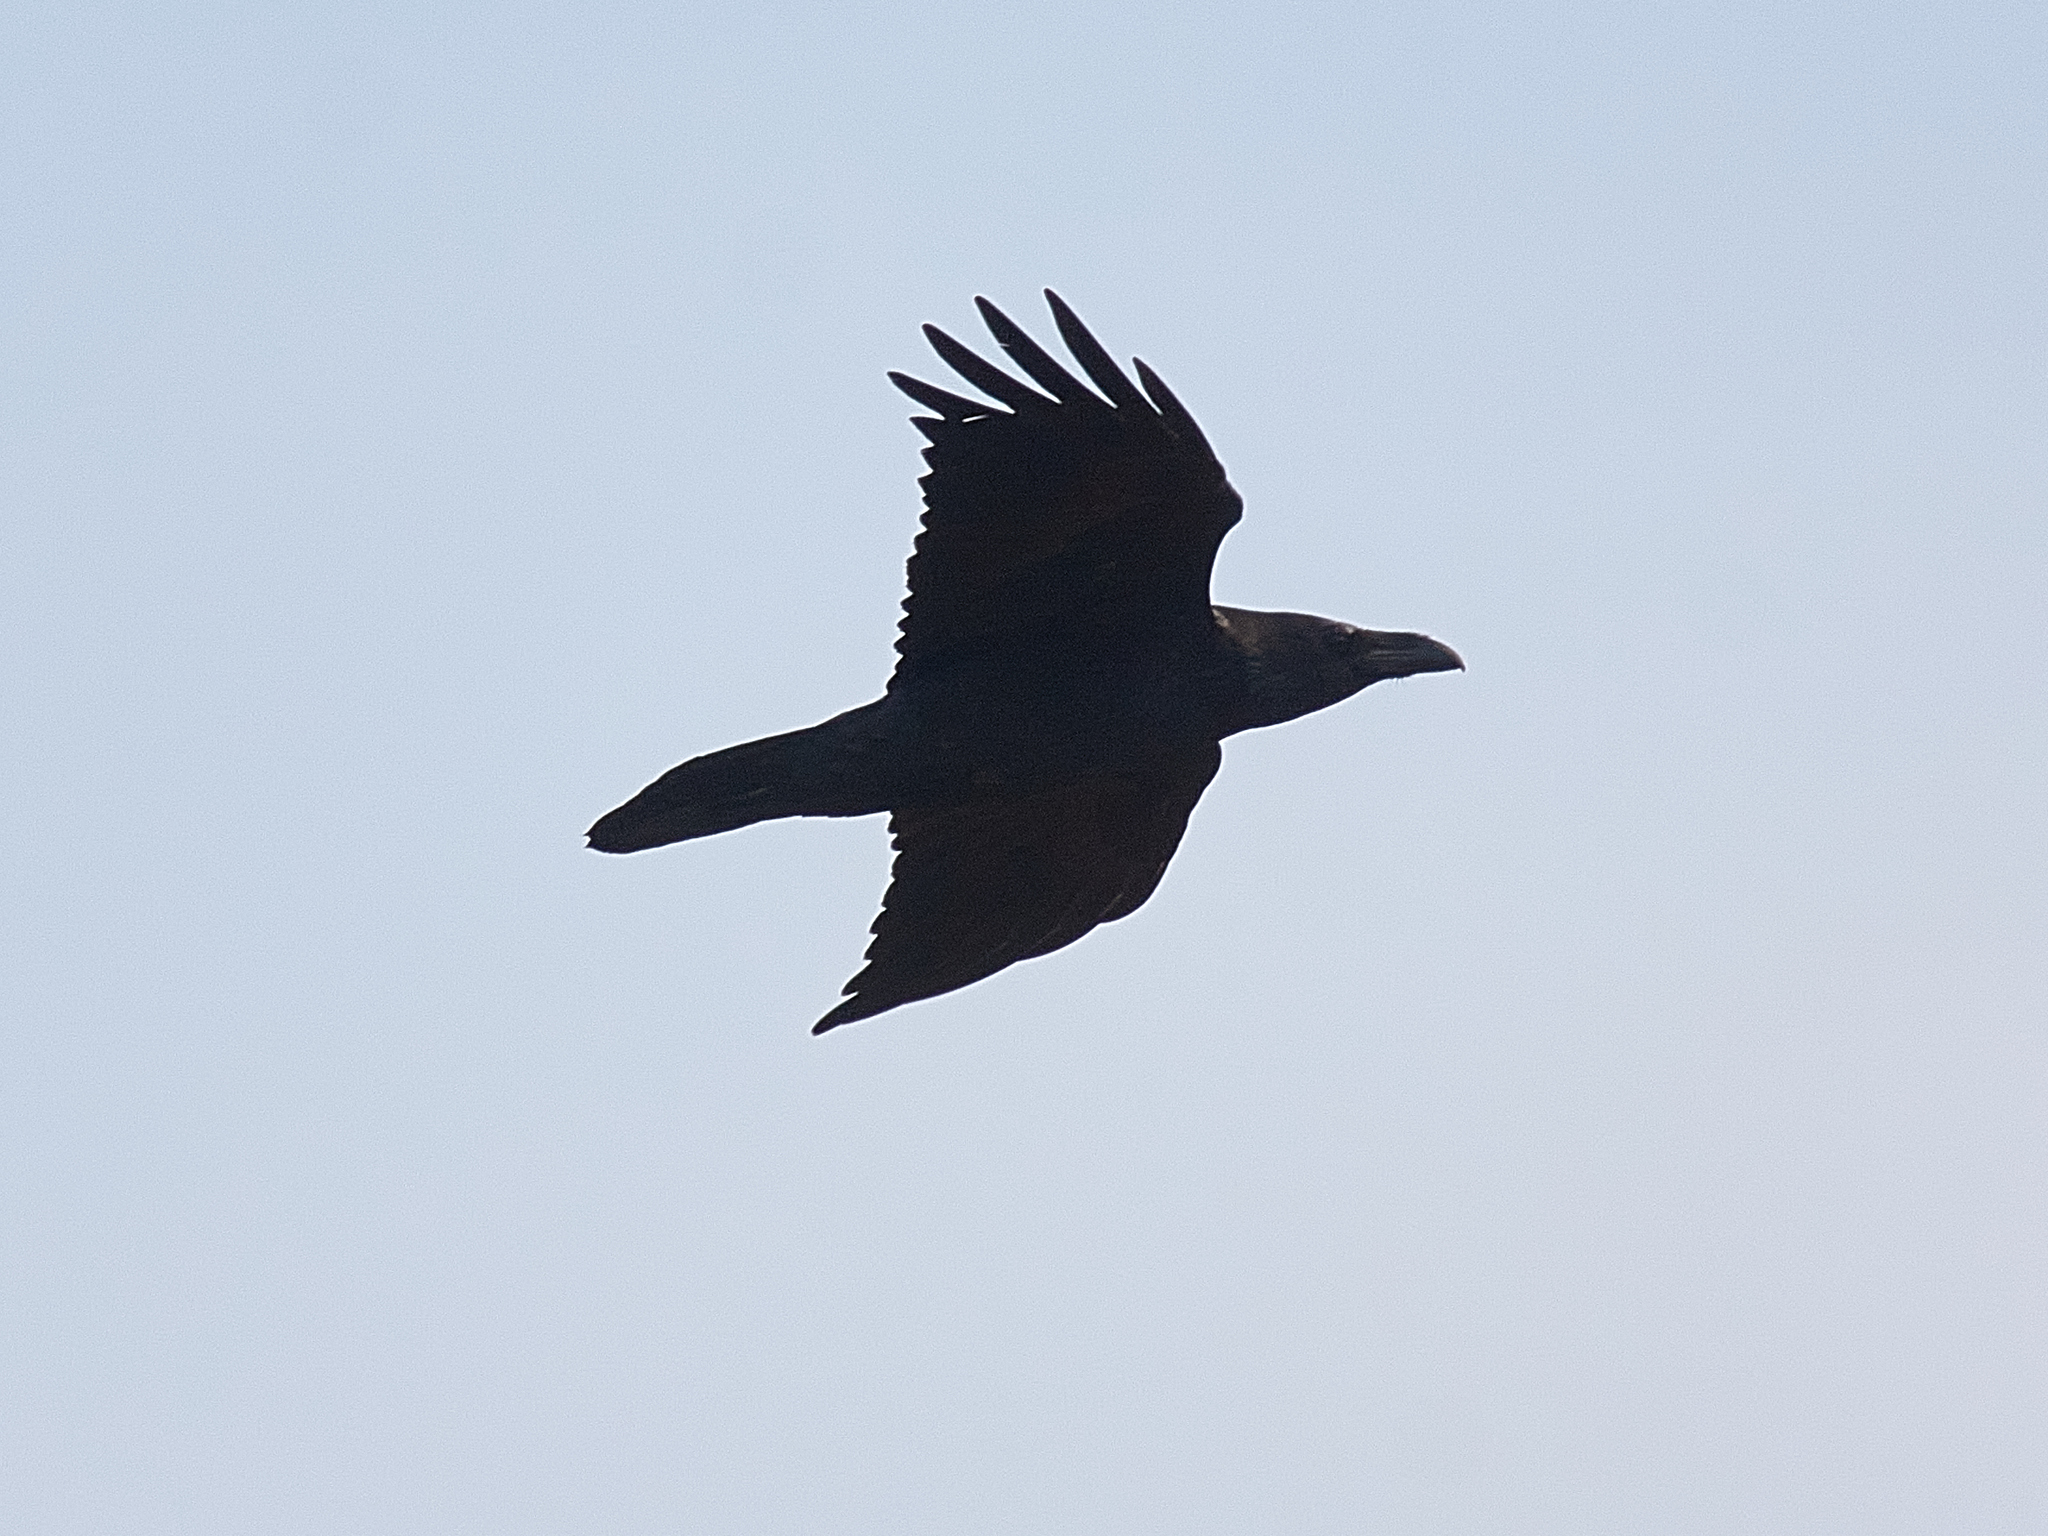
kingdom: Animalia
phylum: Chordata
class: Aves
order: Passeriformes
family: Corvidae
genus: Corvus
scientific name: Corvus corax
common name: Common raven
